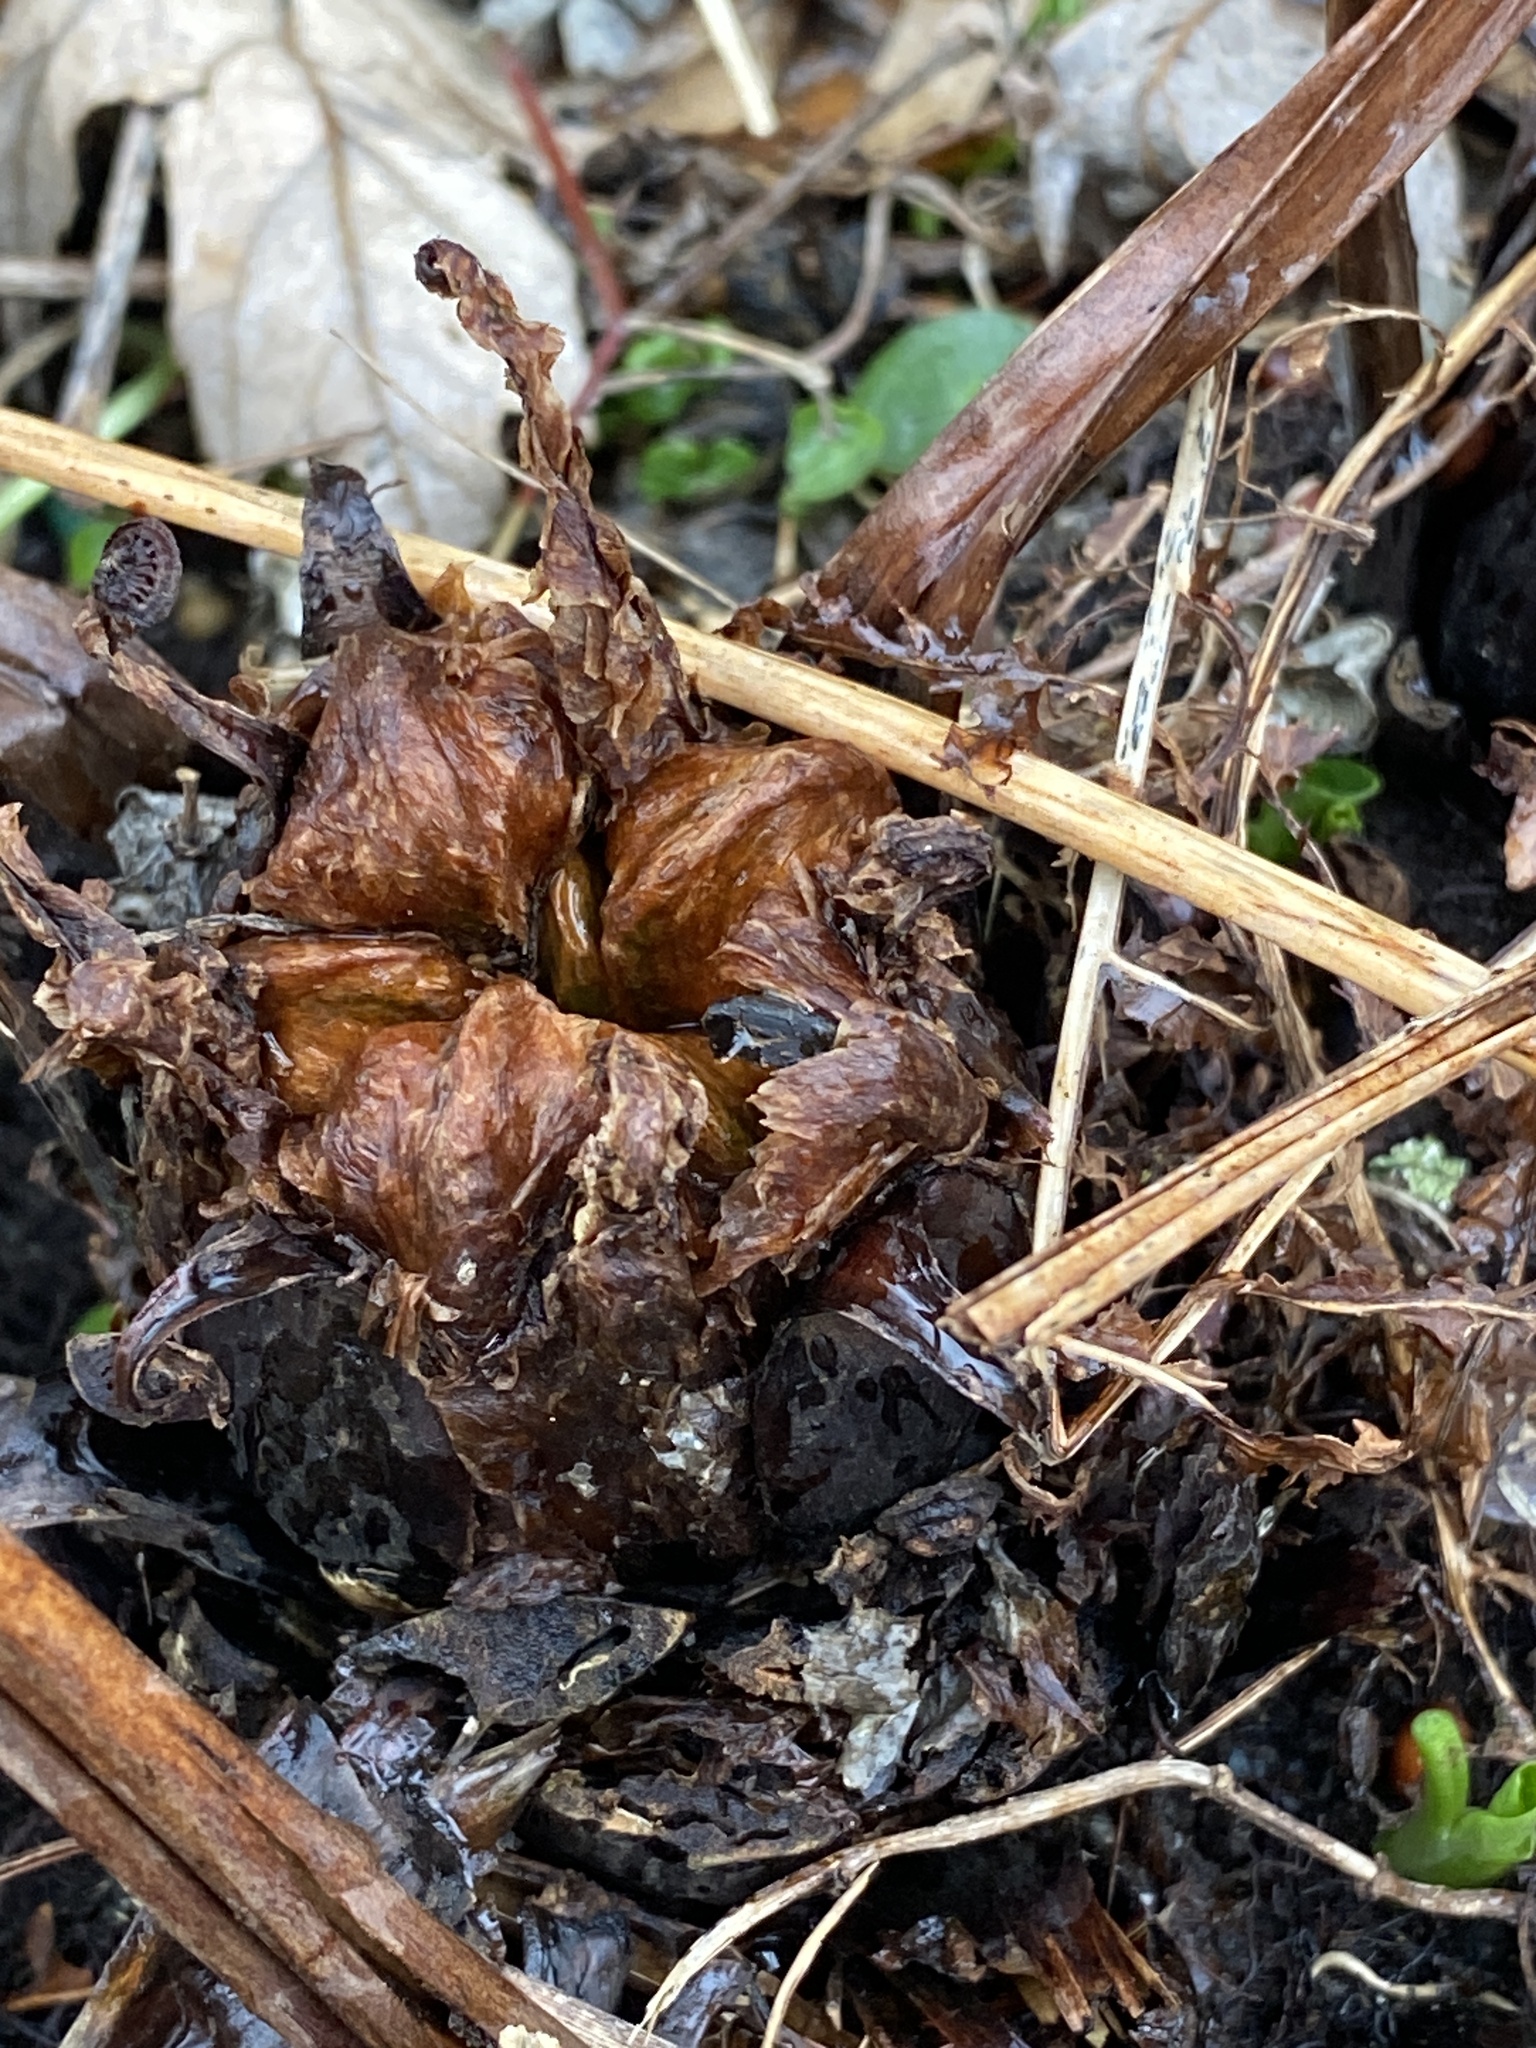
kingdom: Plantae
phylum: Tracheophyta
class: Polypodiopsida
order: Polypodiales
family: Onocleaceae
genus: Matteuccia
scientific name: Matteuccia struthiopteris
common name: Ostrich fern
